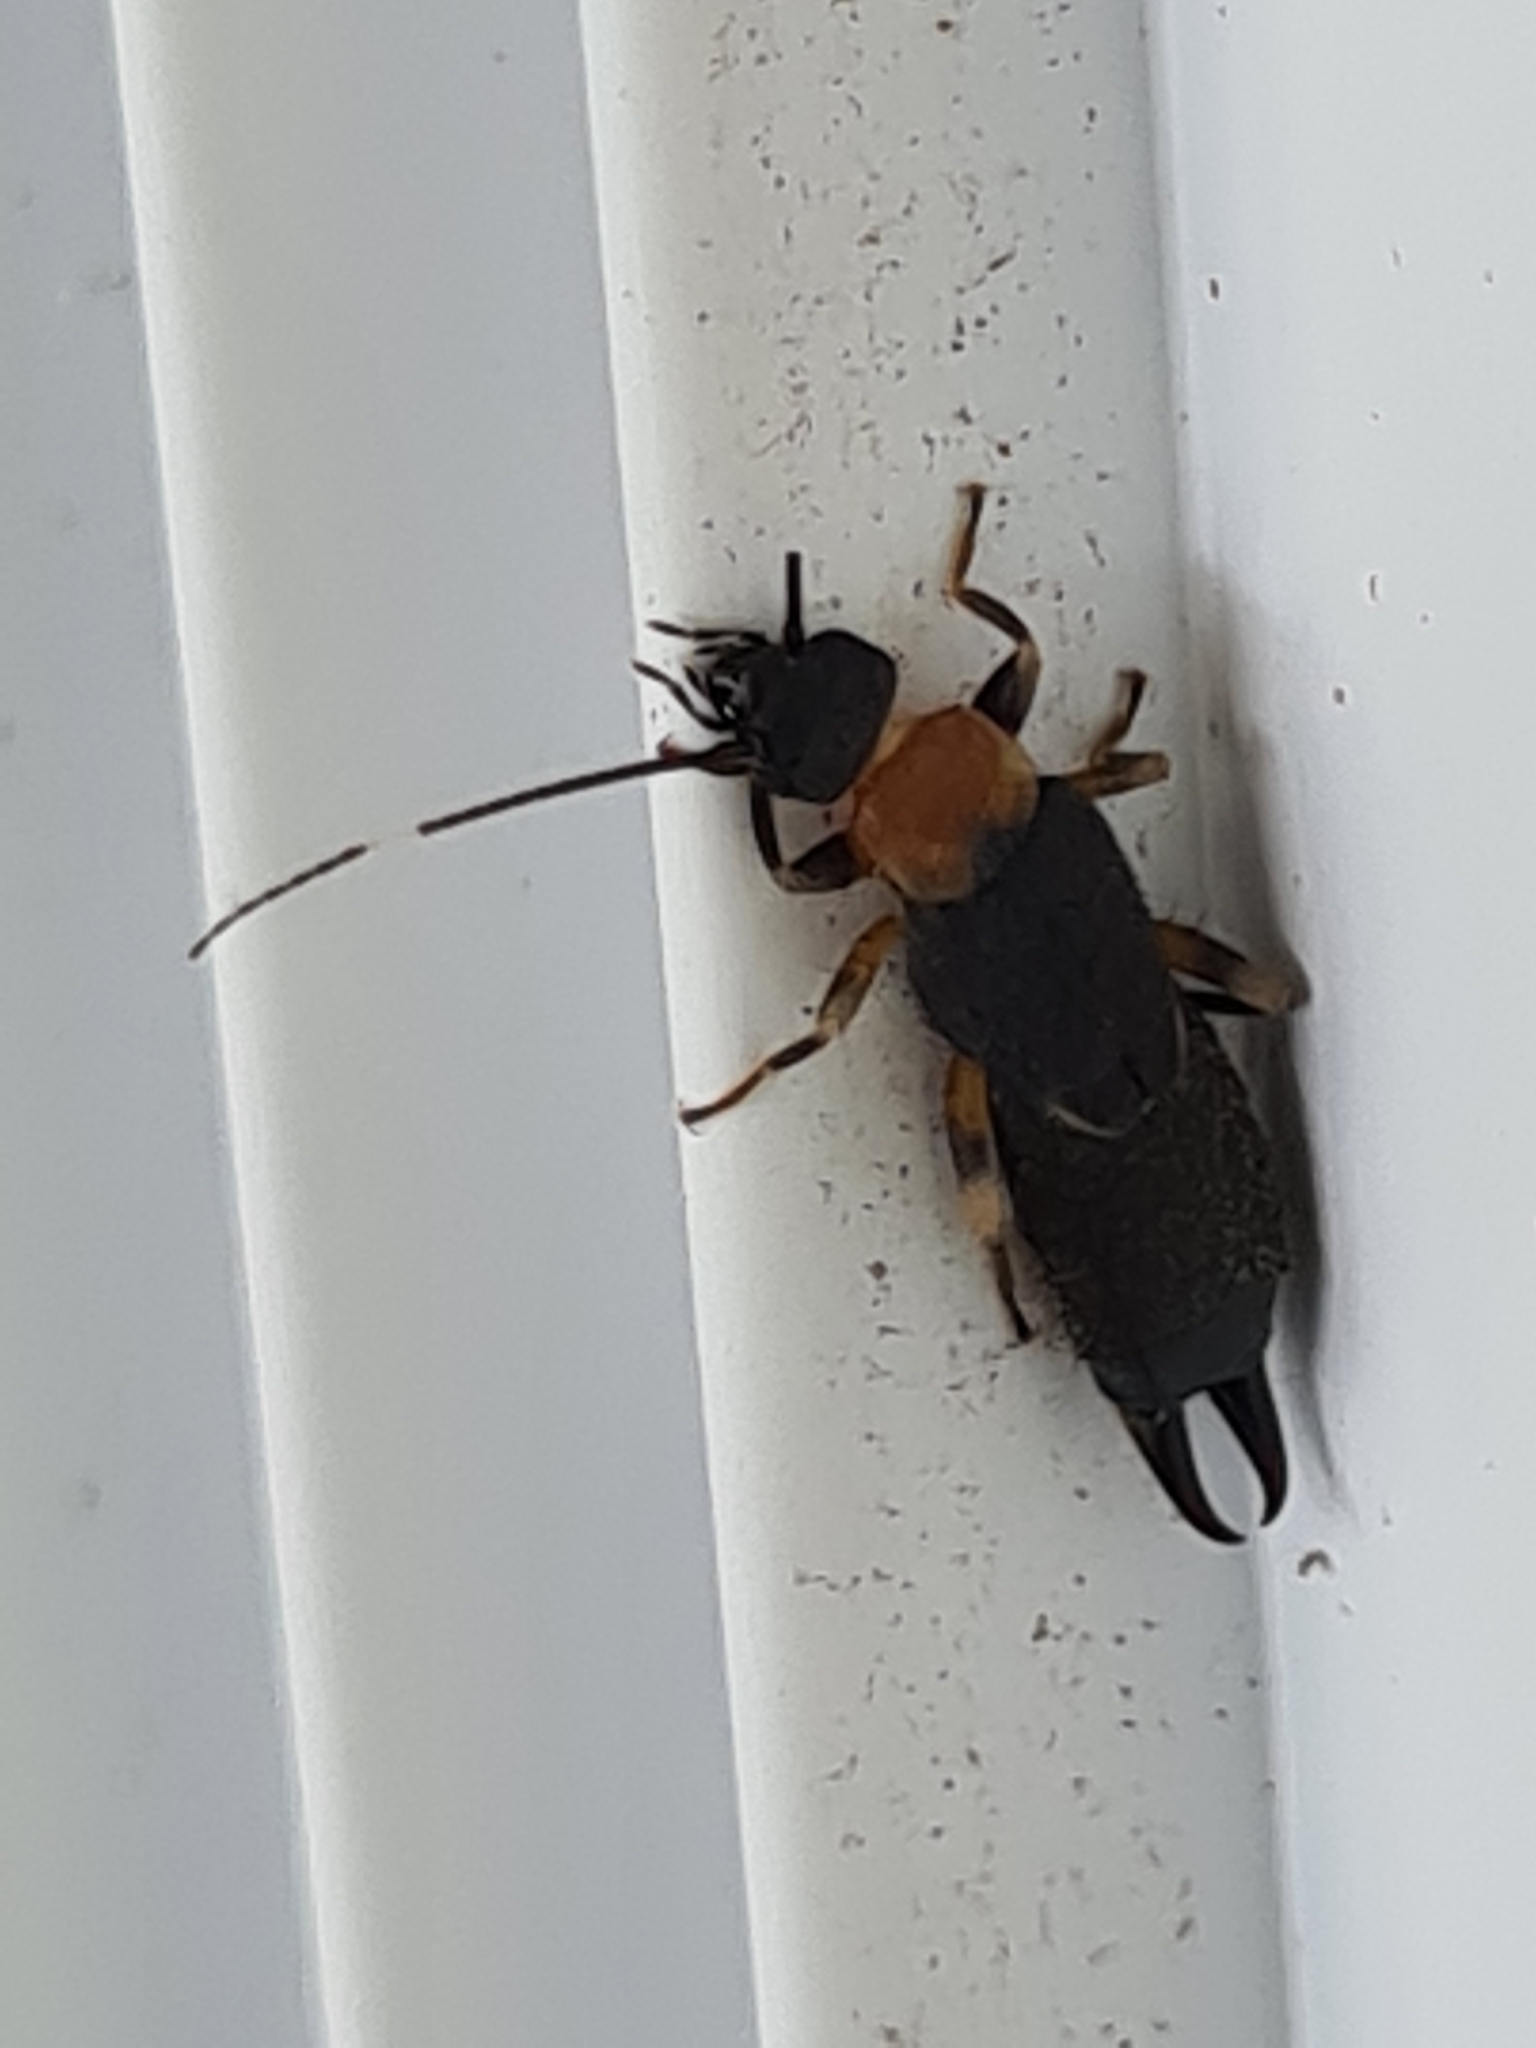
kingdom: Animalia
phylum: Arthropoda
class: Insecta
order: Dermaptera
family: Pygidicranidae
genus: Pyragropsis
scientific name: Pyragropsis thoracica
